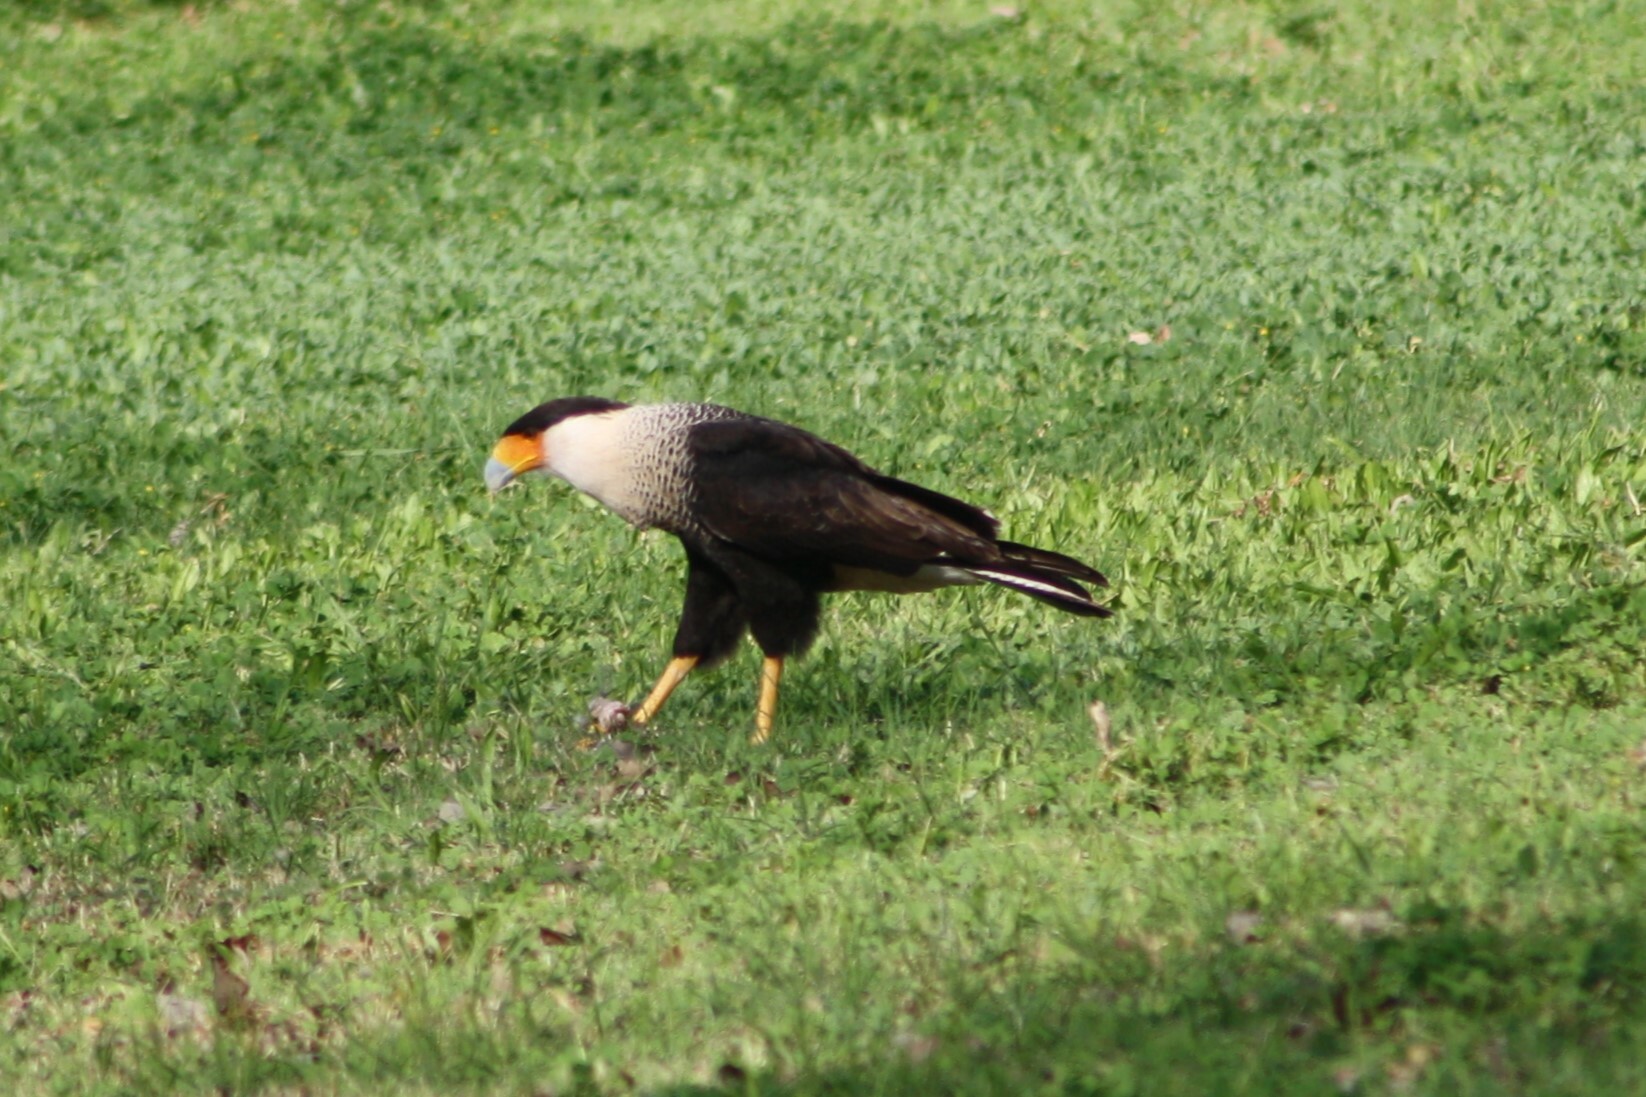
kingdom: Animalia
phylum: Chordata
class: Aves
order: Falconiformes
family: Falconidae
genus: Caracara
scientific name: Caracara plancus
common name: Southern caracara
